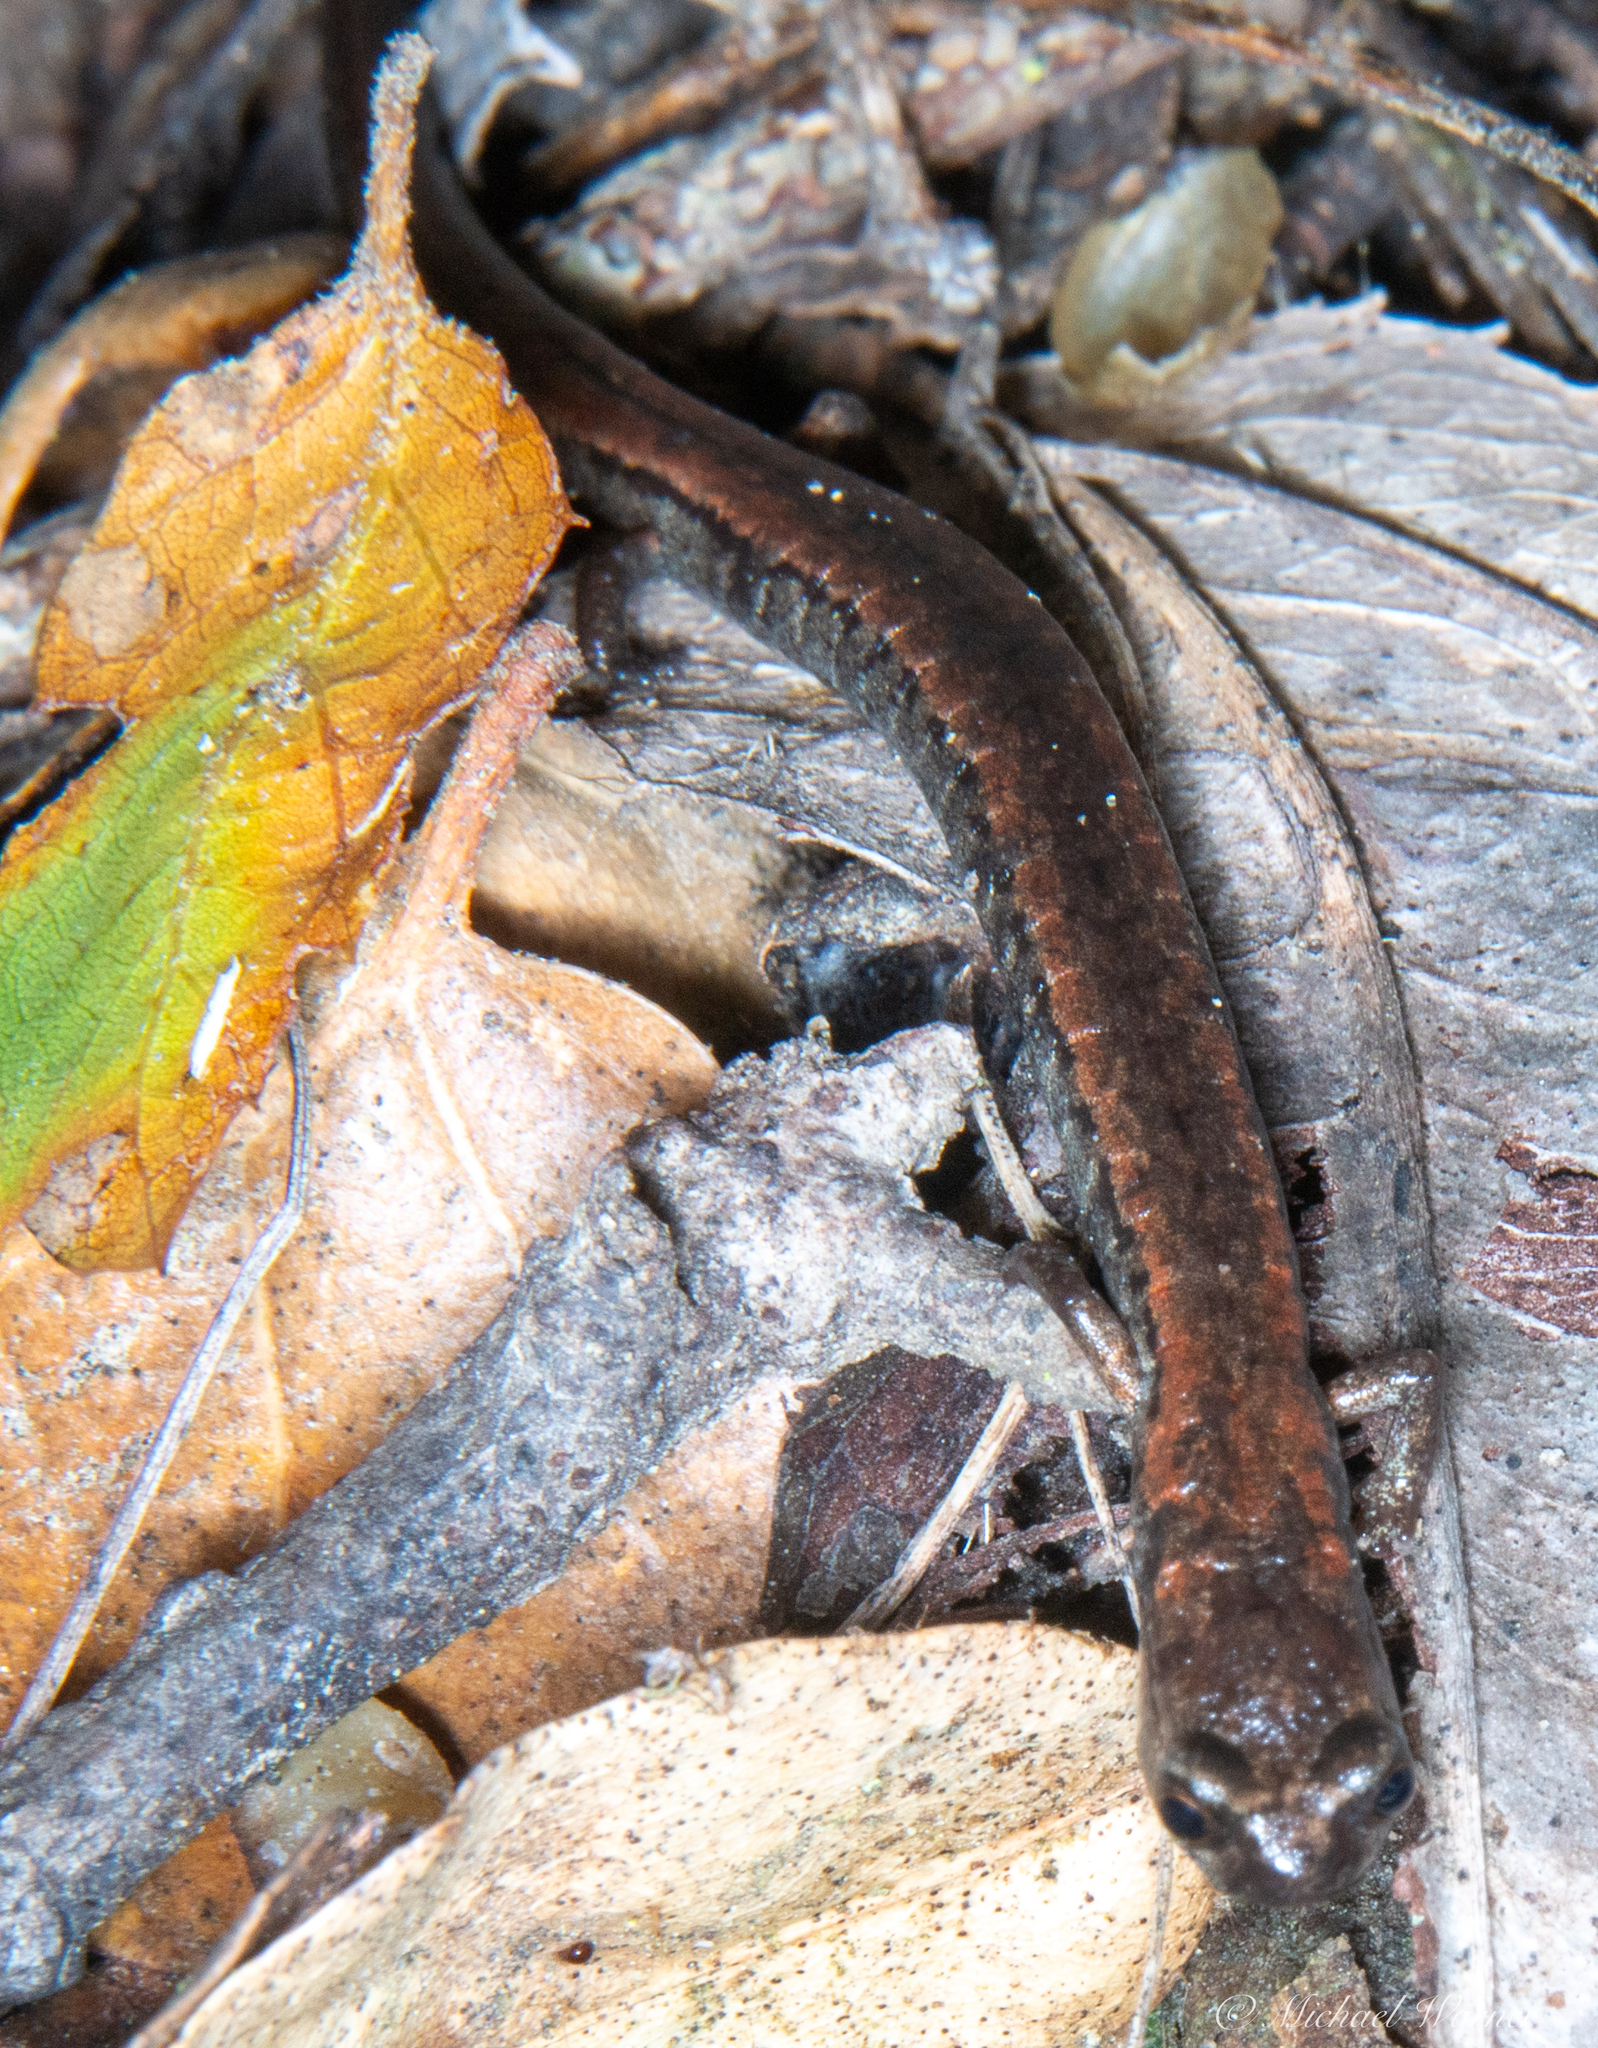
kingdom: Animalia
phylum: Chordata
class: Amphibia
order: Caudata
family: Plethodontidae
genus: Batrachoseps
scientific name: Batrachoseps attenuatus
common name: California slender salamander
